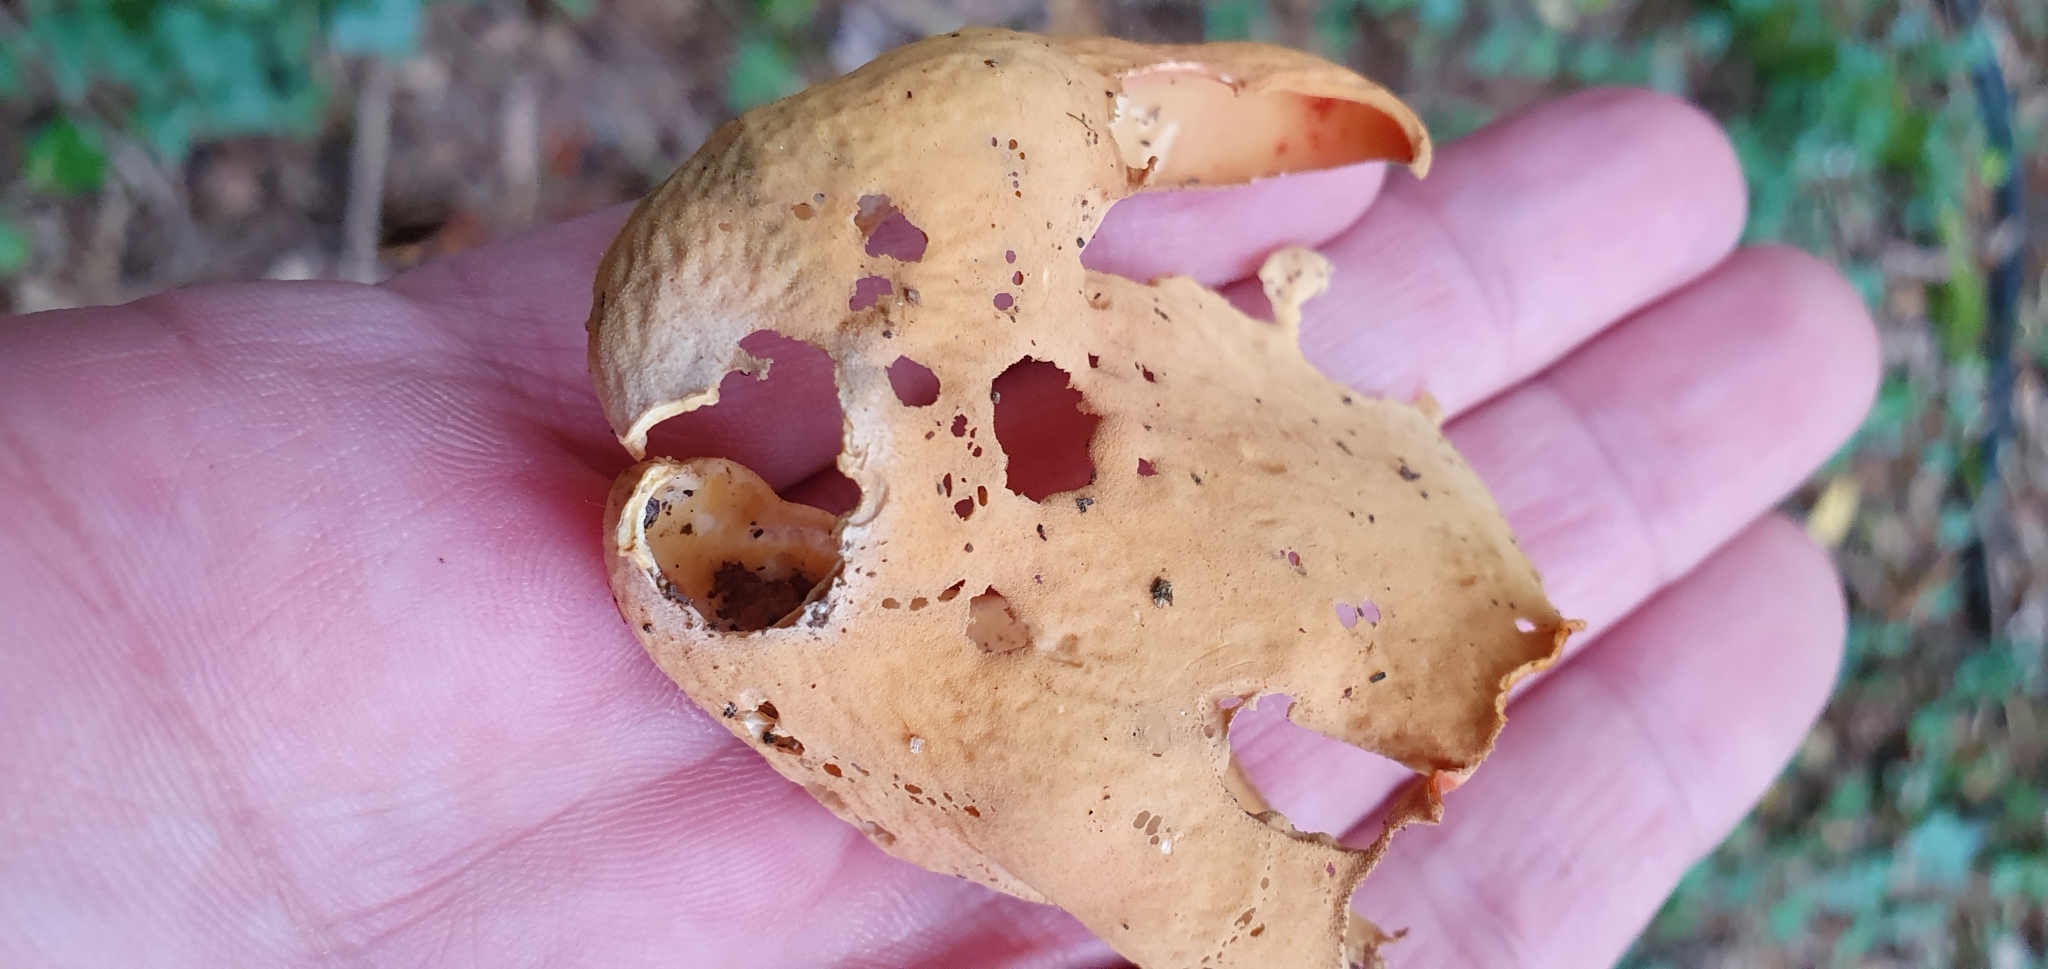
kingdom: Fungi
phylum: Ascomycota
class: Pezizomycetes
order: Pezizales
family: Otideaceae
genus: Otidea
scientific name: Otidea onotica
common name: Hare's ear
